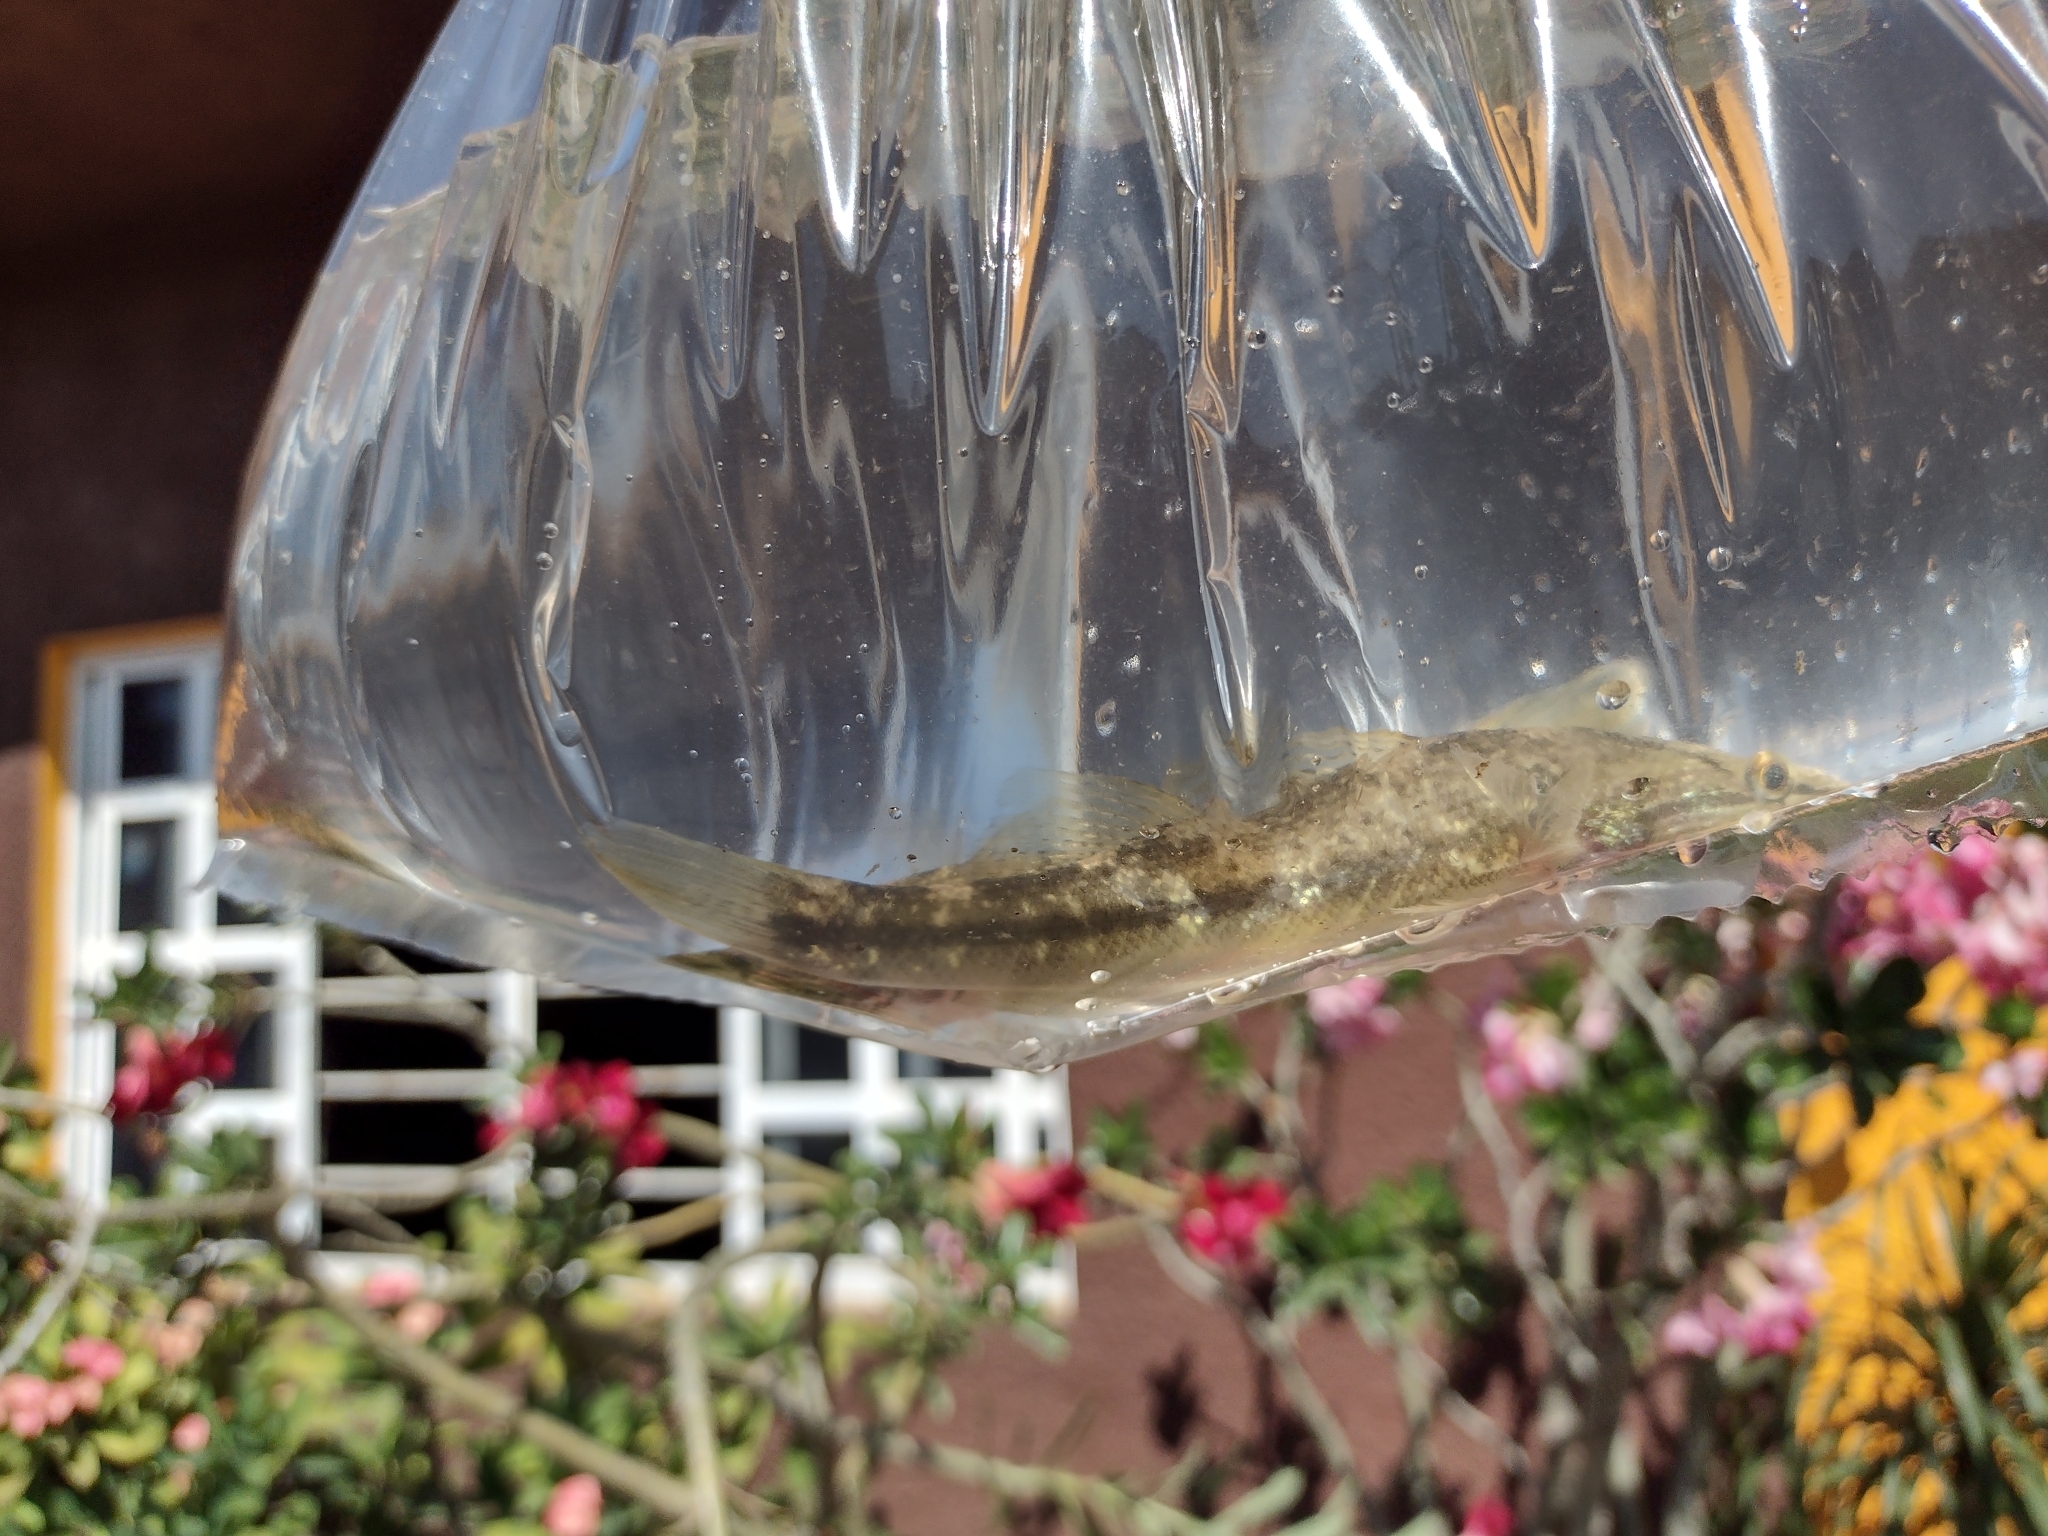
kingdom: Animalia
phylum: Chordata
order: Perciformes
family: Eleotridae
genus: Gobiomorus
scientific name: Gobiomorus maculatus
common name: Sleeper
